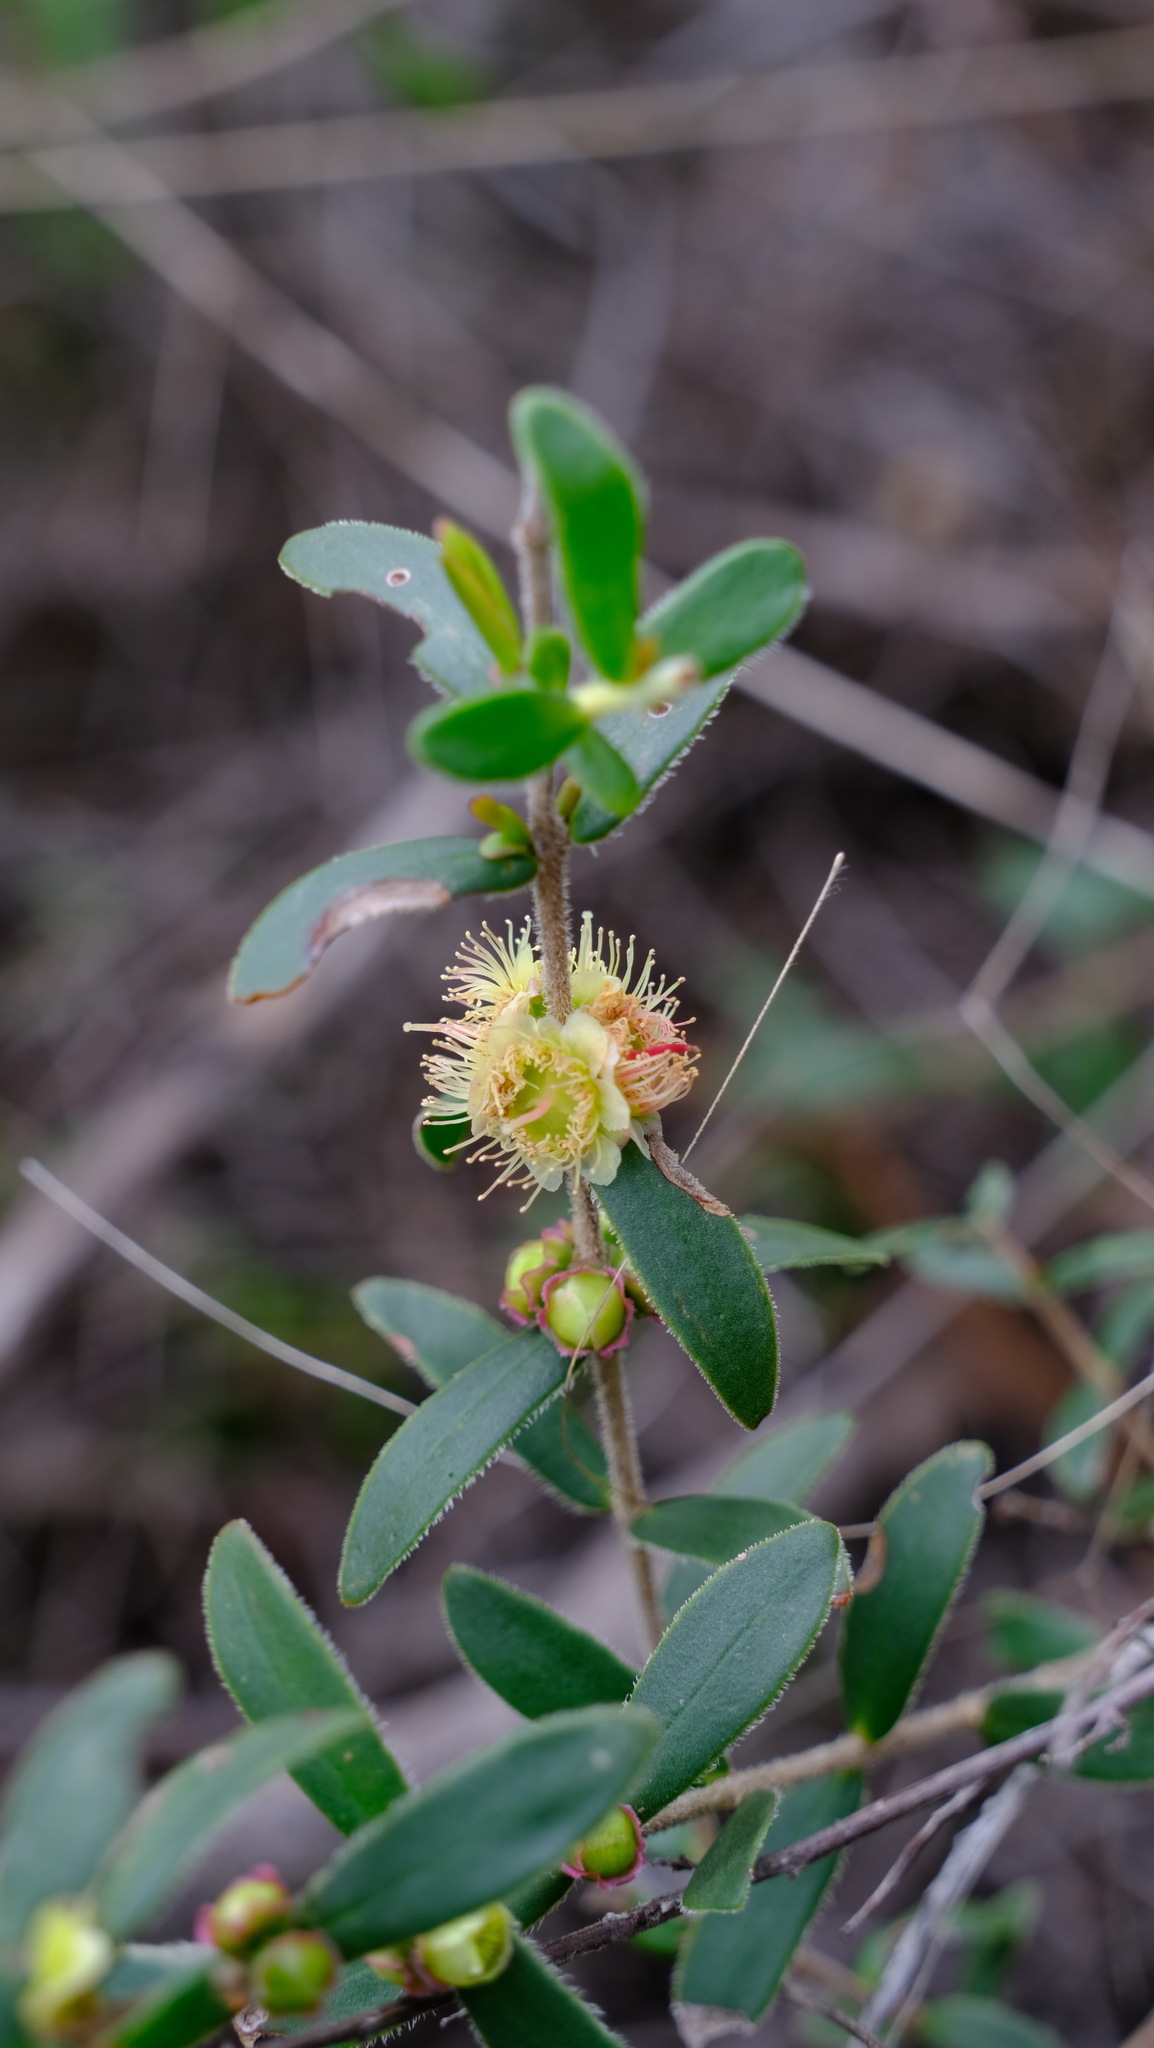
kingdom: Plantae
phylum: Tracheophyta
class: Magnoliopsida
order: Myrtales
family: Myrtaceae
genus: Hypocalymma
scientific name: Hypocalymma xanthopetalum
